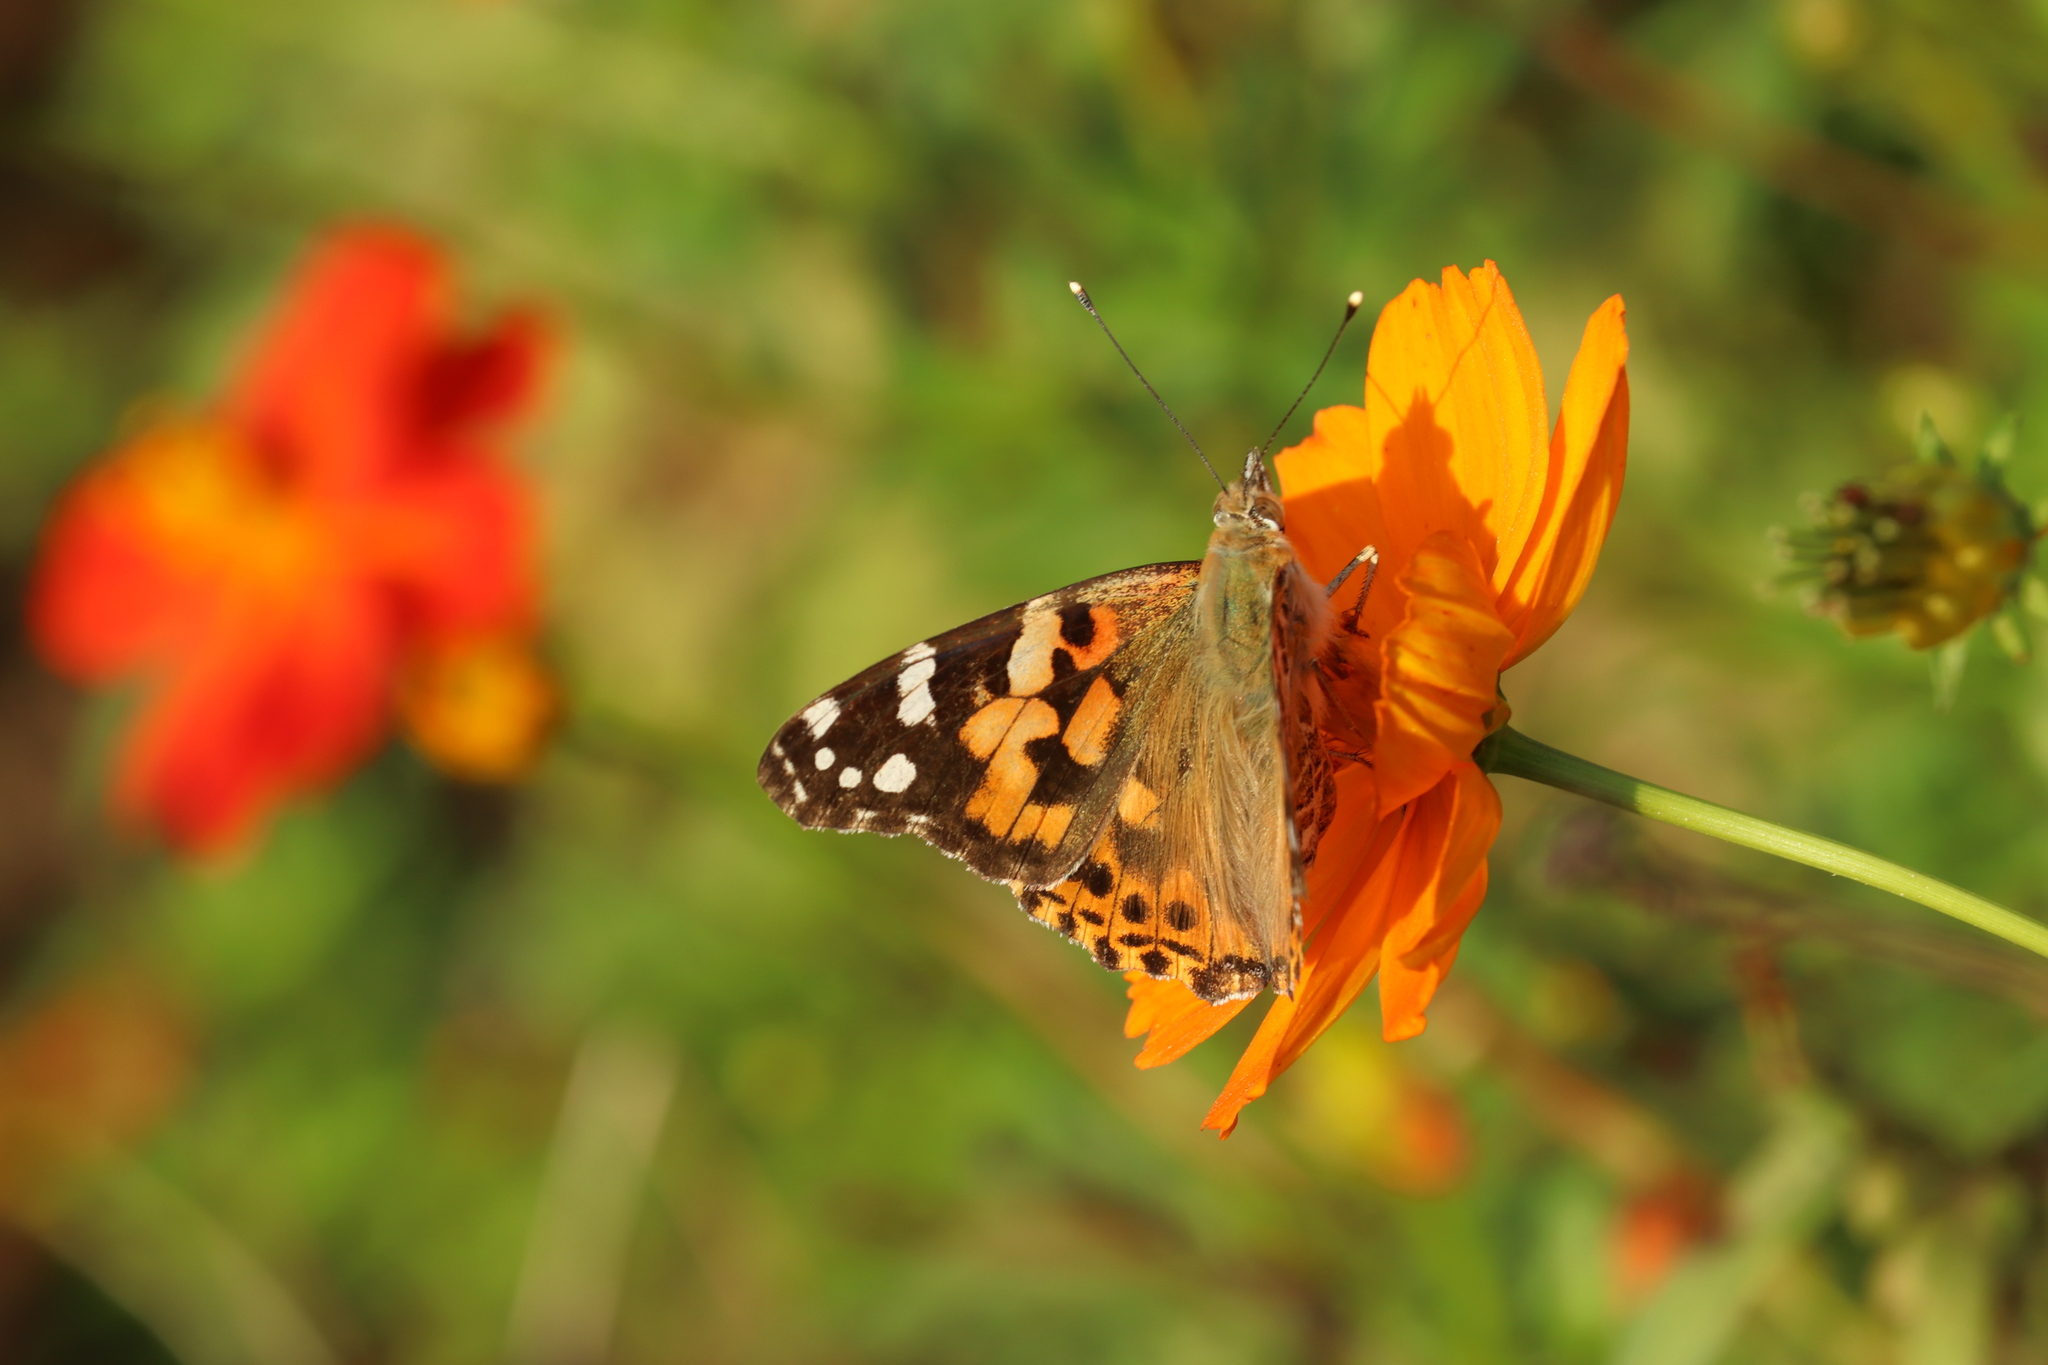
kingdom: Animalia
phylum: Arthropoda
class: Insecta
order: Lepidoptera
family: Nymphalidae
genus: Vanessa
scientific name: Vanessa cardui
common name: Painted lady
